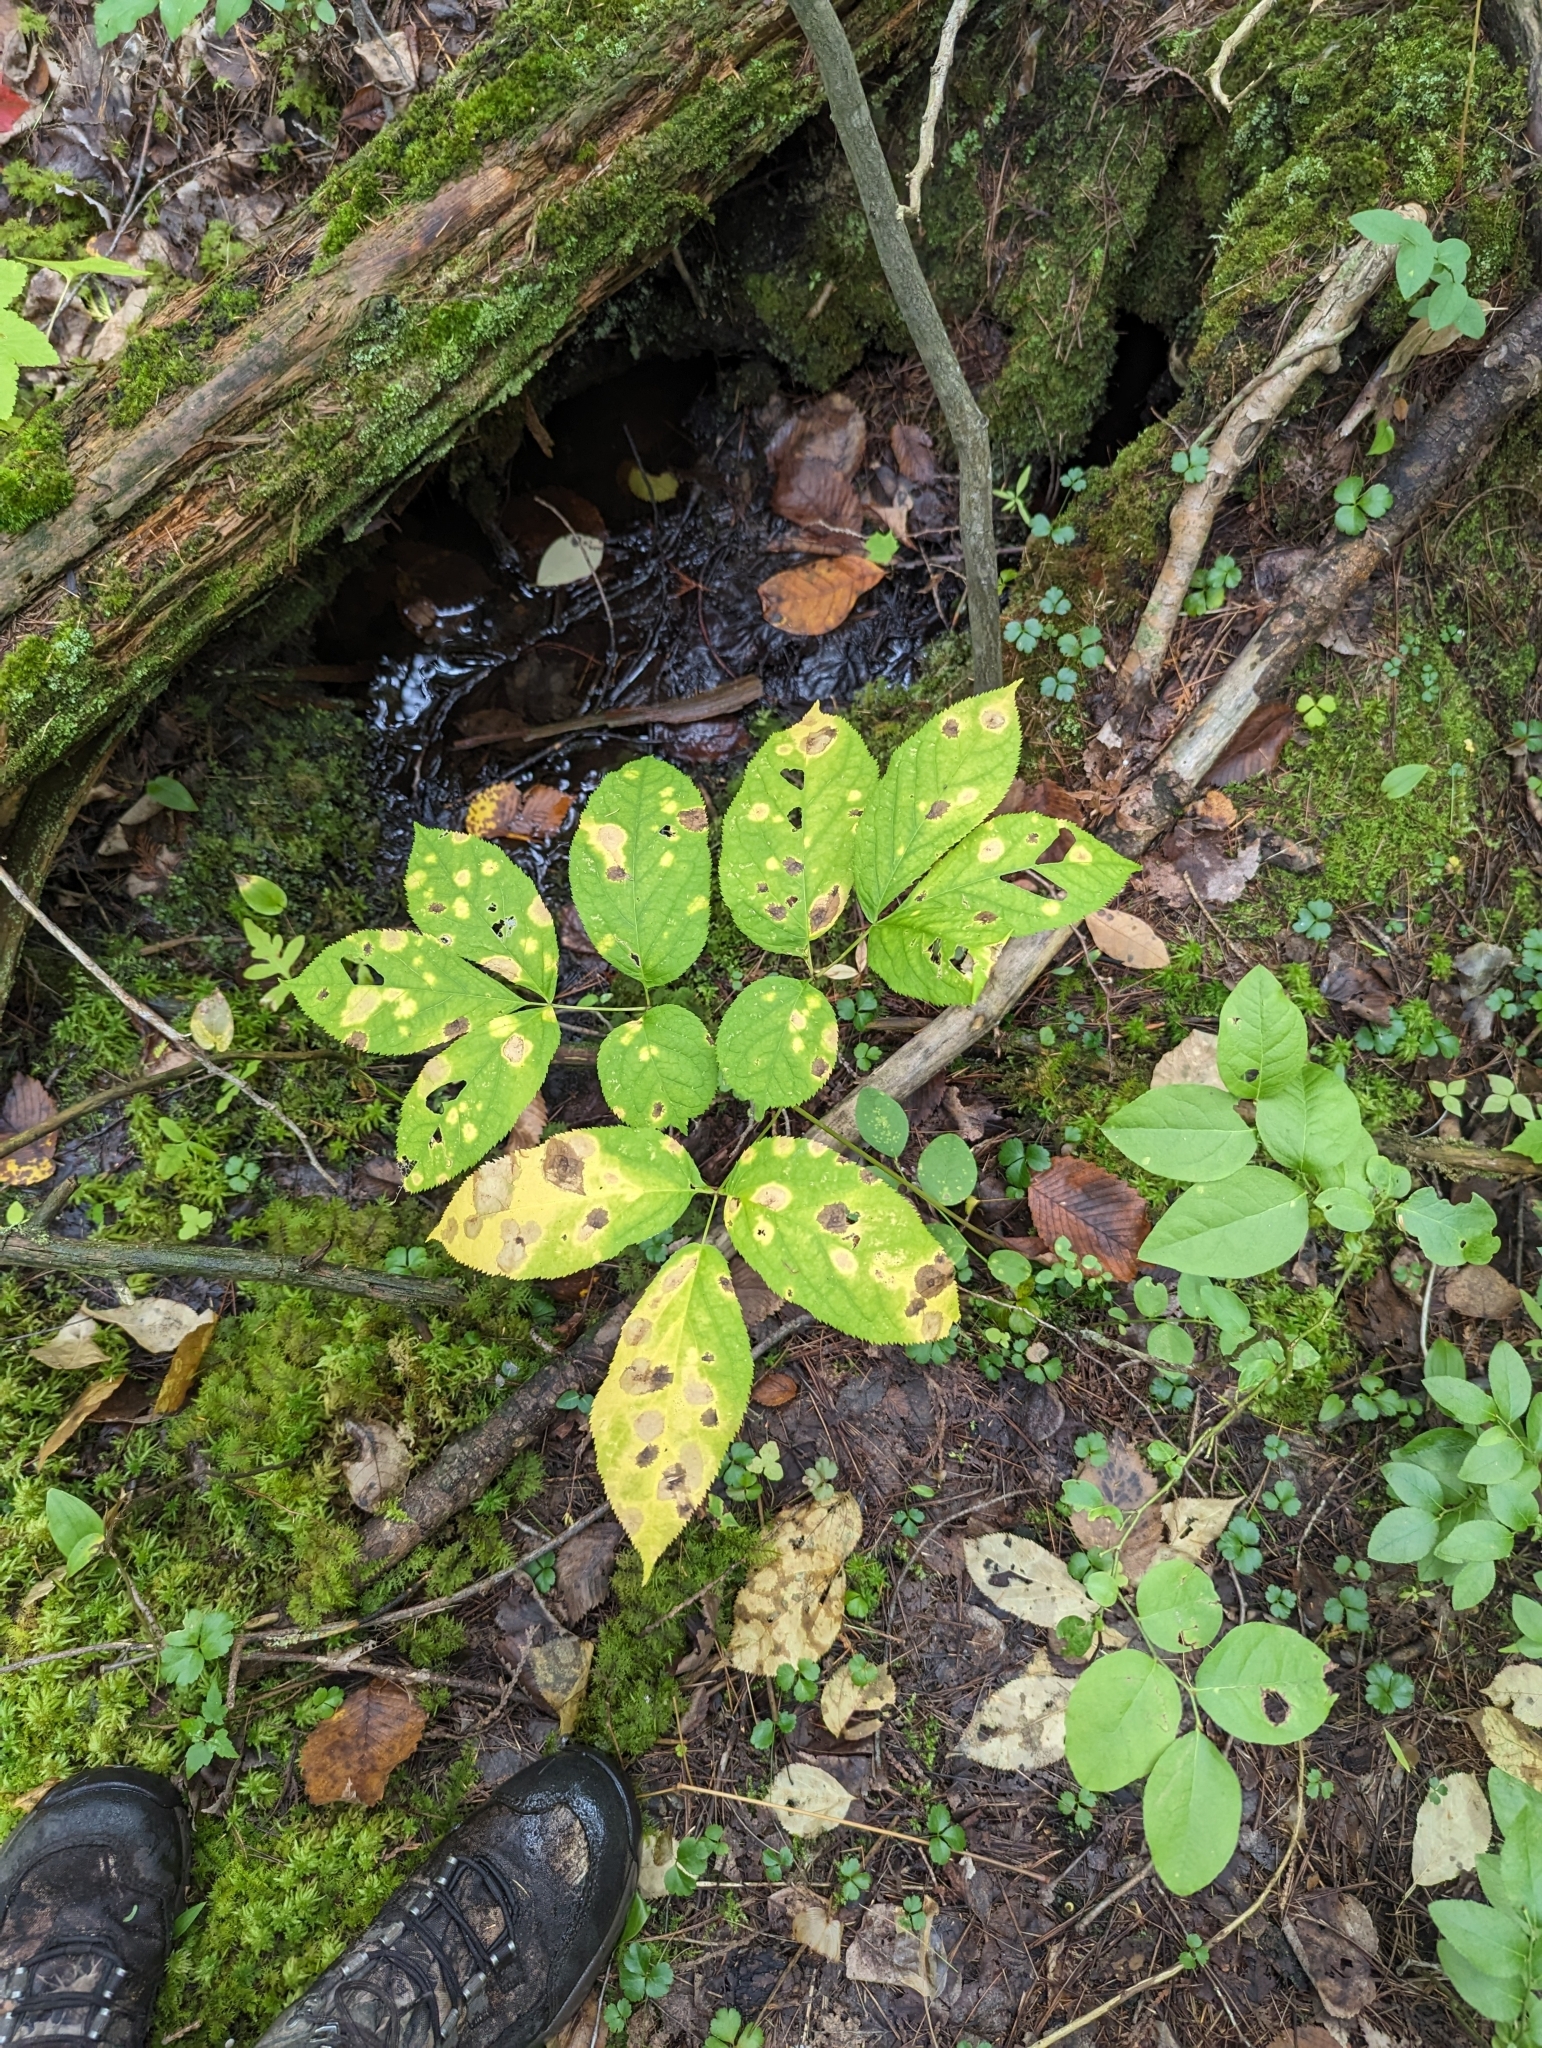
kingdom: Plantae
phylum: Tracheophyta
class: Magnoliopsida
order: Apiales
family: Araliaceae
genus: Aralia
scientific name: Aralia nudicaulis
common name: Wild sarsaparilla
